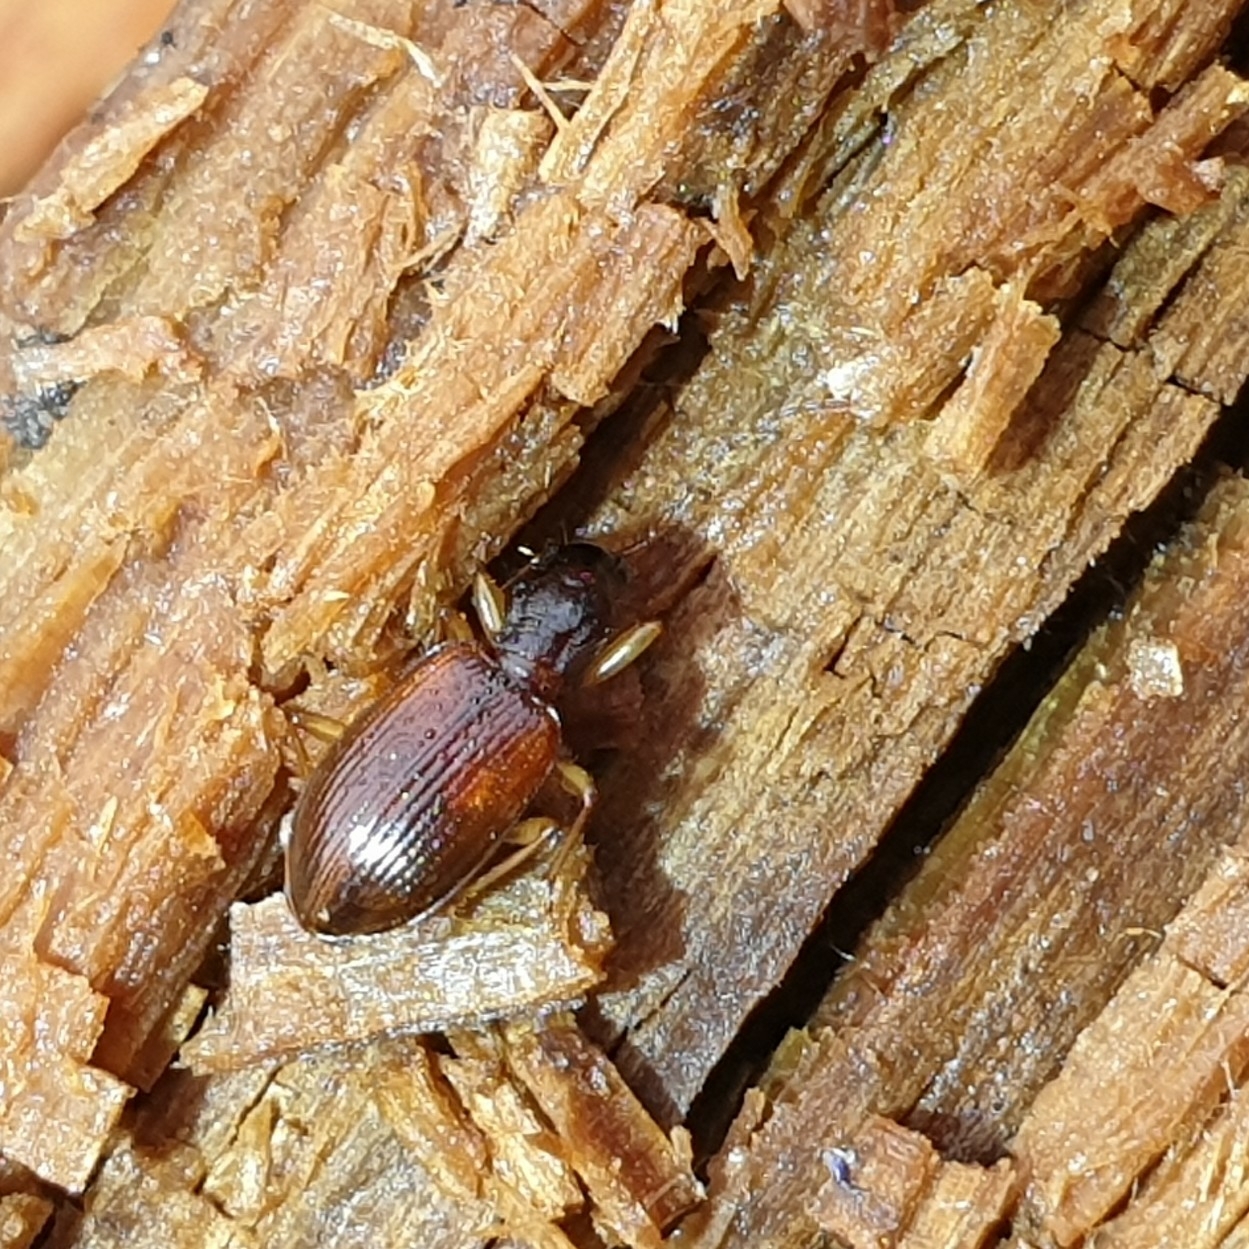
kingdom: Animalia
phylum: Arthropoda
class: Insecta
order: Coleoptera
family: Carabidae
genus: Oxypselaphus
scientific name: Oxypselaphus obscurus
